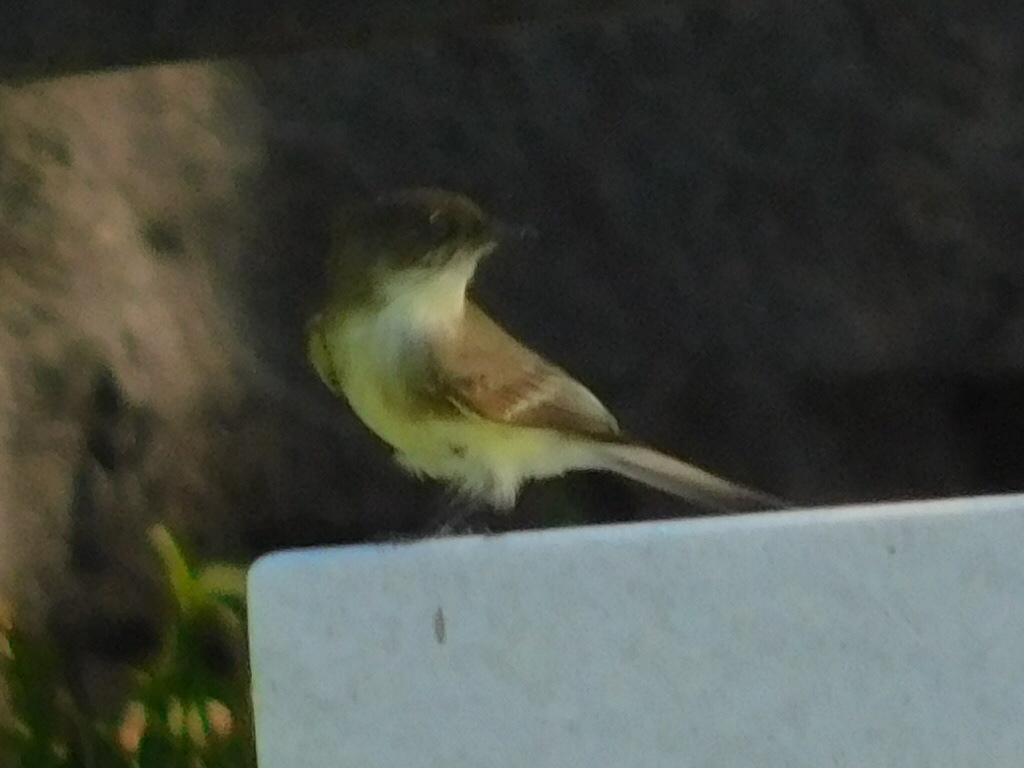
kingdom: Animalia
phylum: Chordata
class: Aves
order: Passeriformes
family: Tyrannidae
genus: Sayornis
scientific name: Sayornis phoebe
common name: Eastern phoebe
